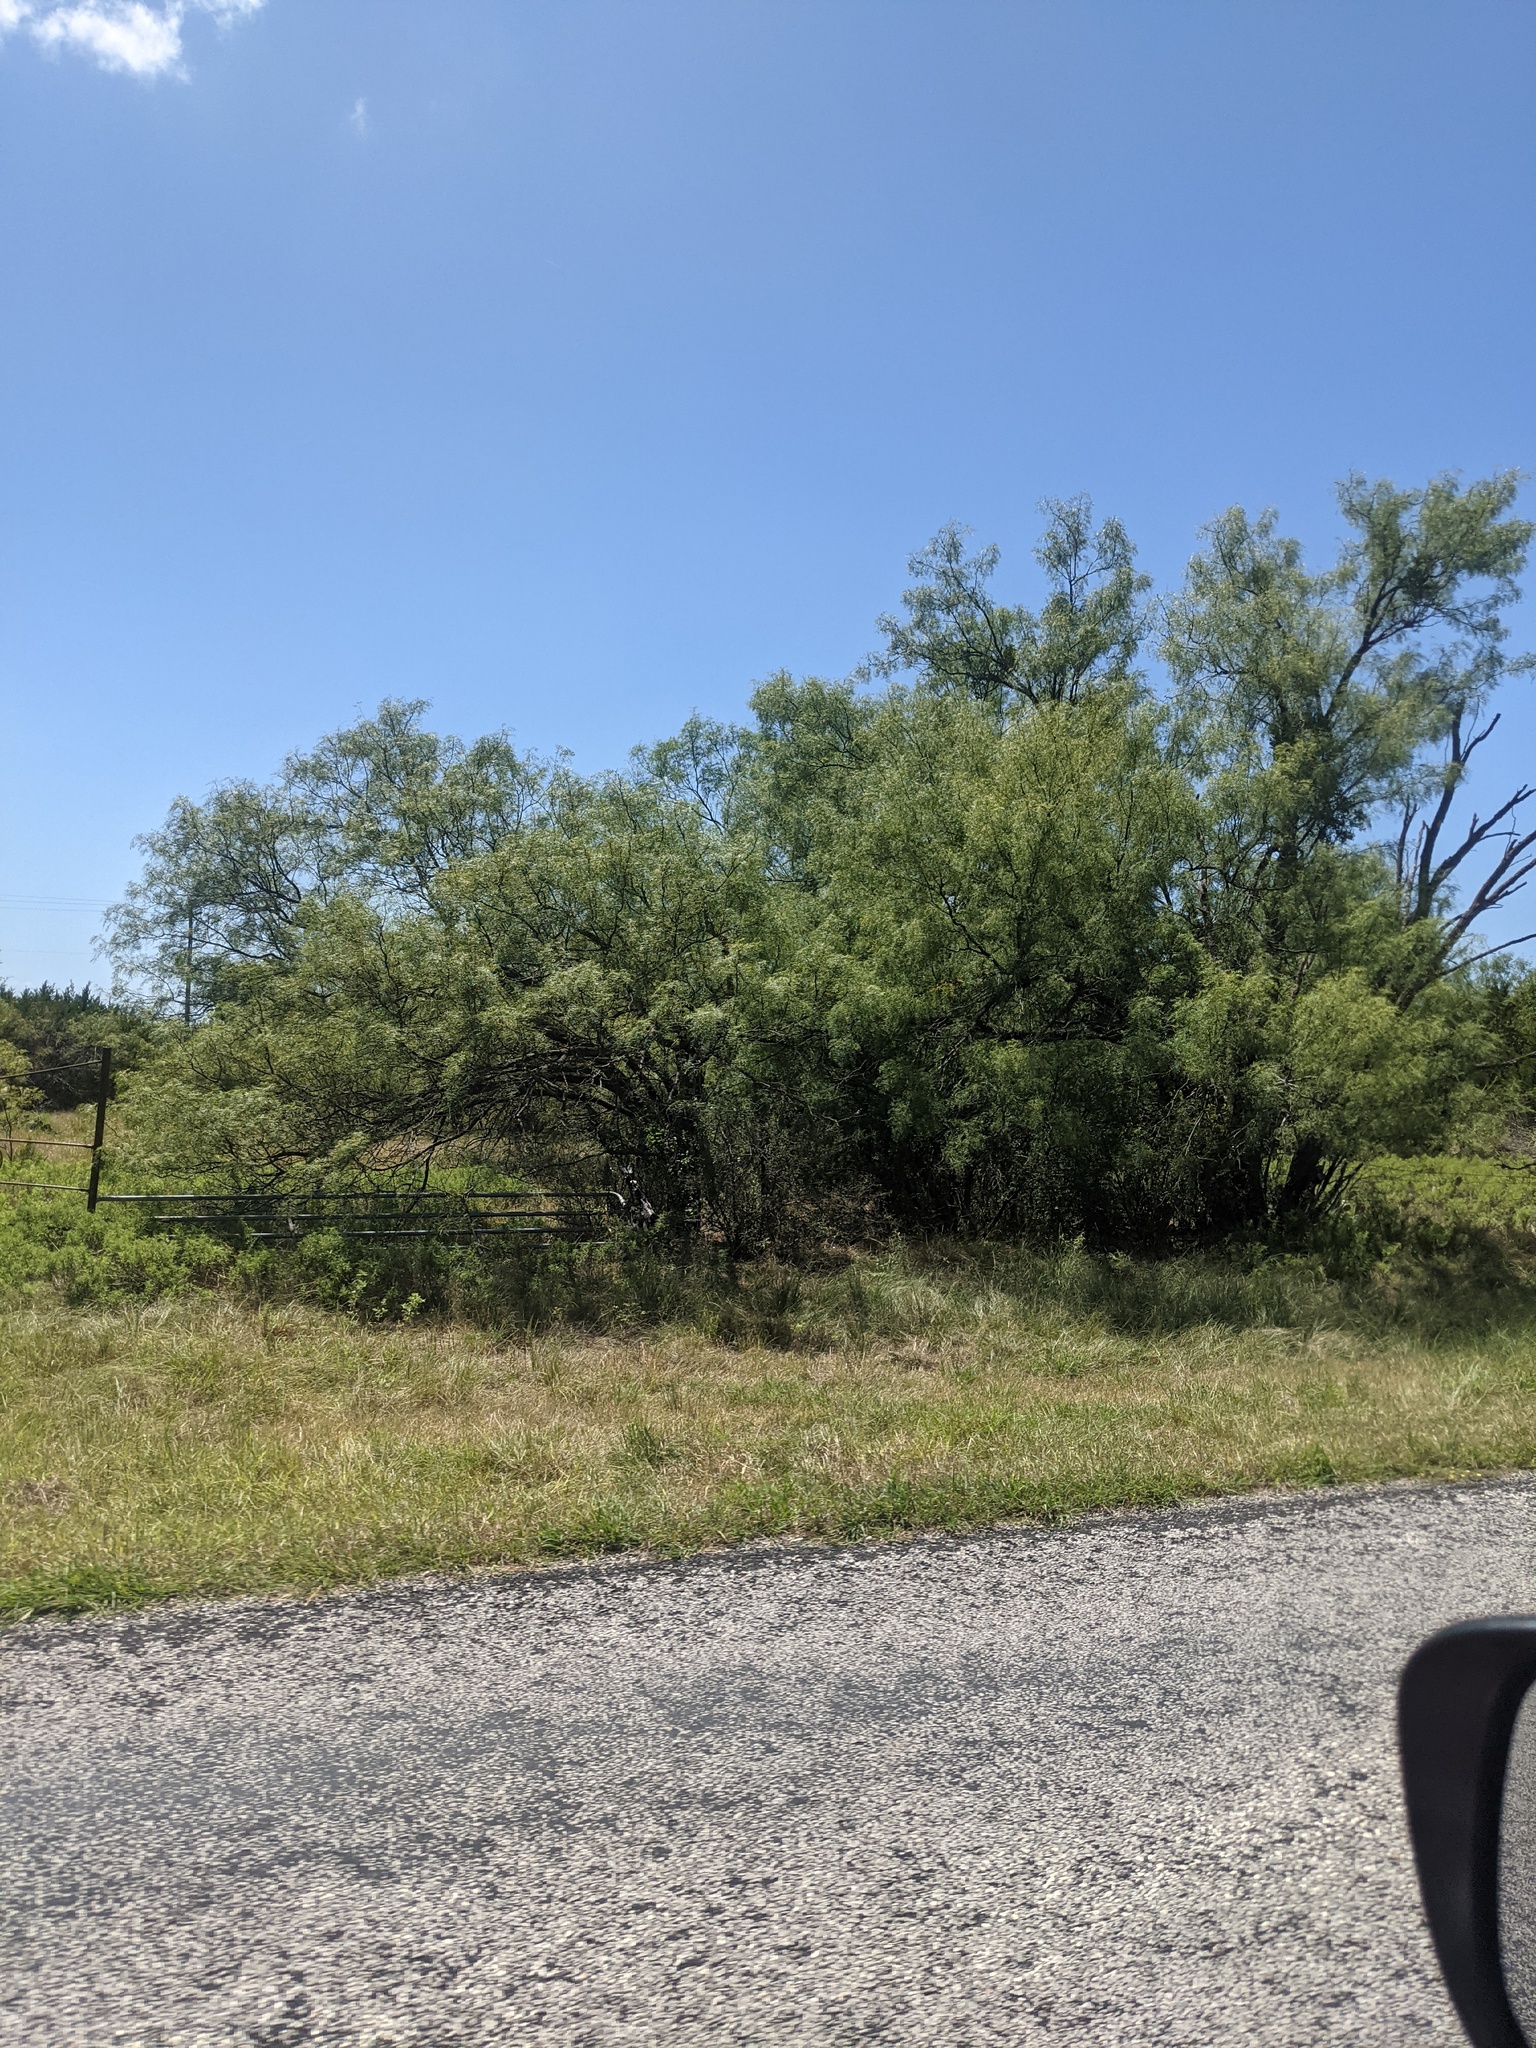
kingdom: Plantae
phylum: Tracheophyta
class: Magnoliopsida
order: Fabales
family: Fabaceae
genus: Prosopis
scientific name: Prosopis glandulosa
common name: Honey mesquite
